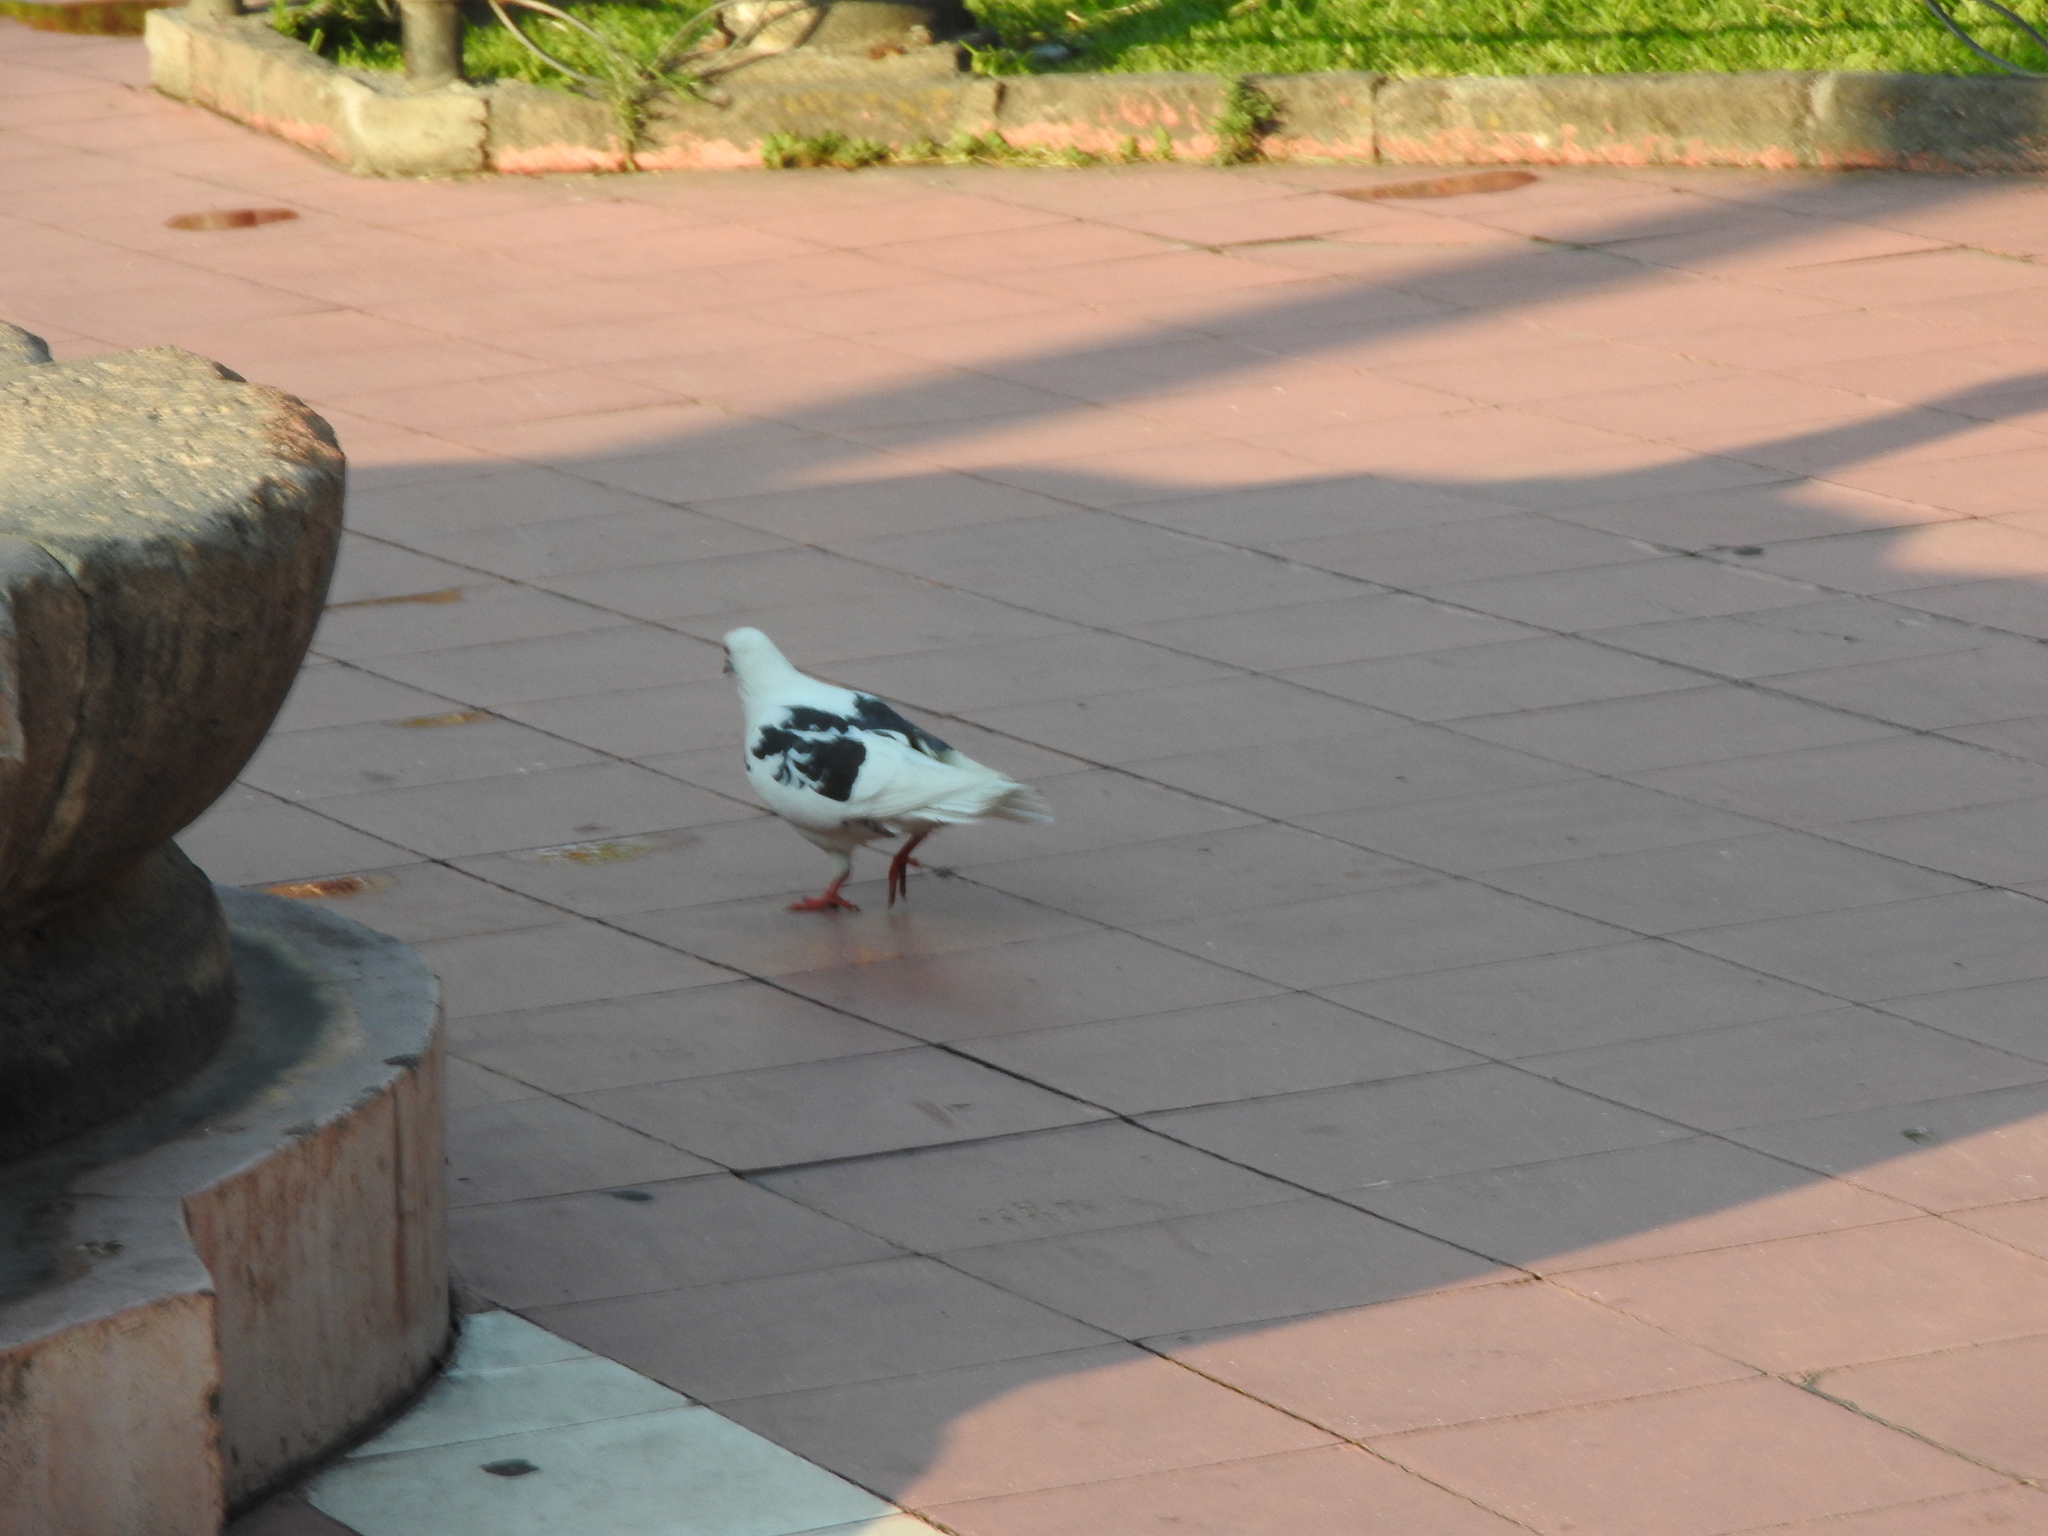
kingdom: Animalia
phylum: Chordata
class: Aves
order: Columbiformes
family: Columbidae
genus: Columba
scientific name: Columba livia
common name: Rock pigeon
